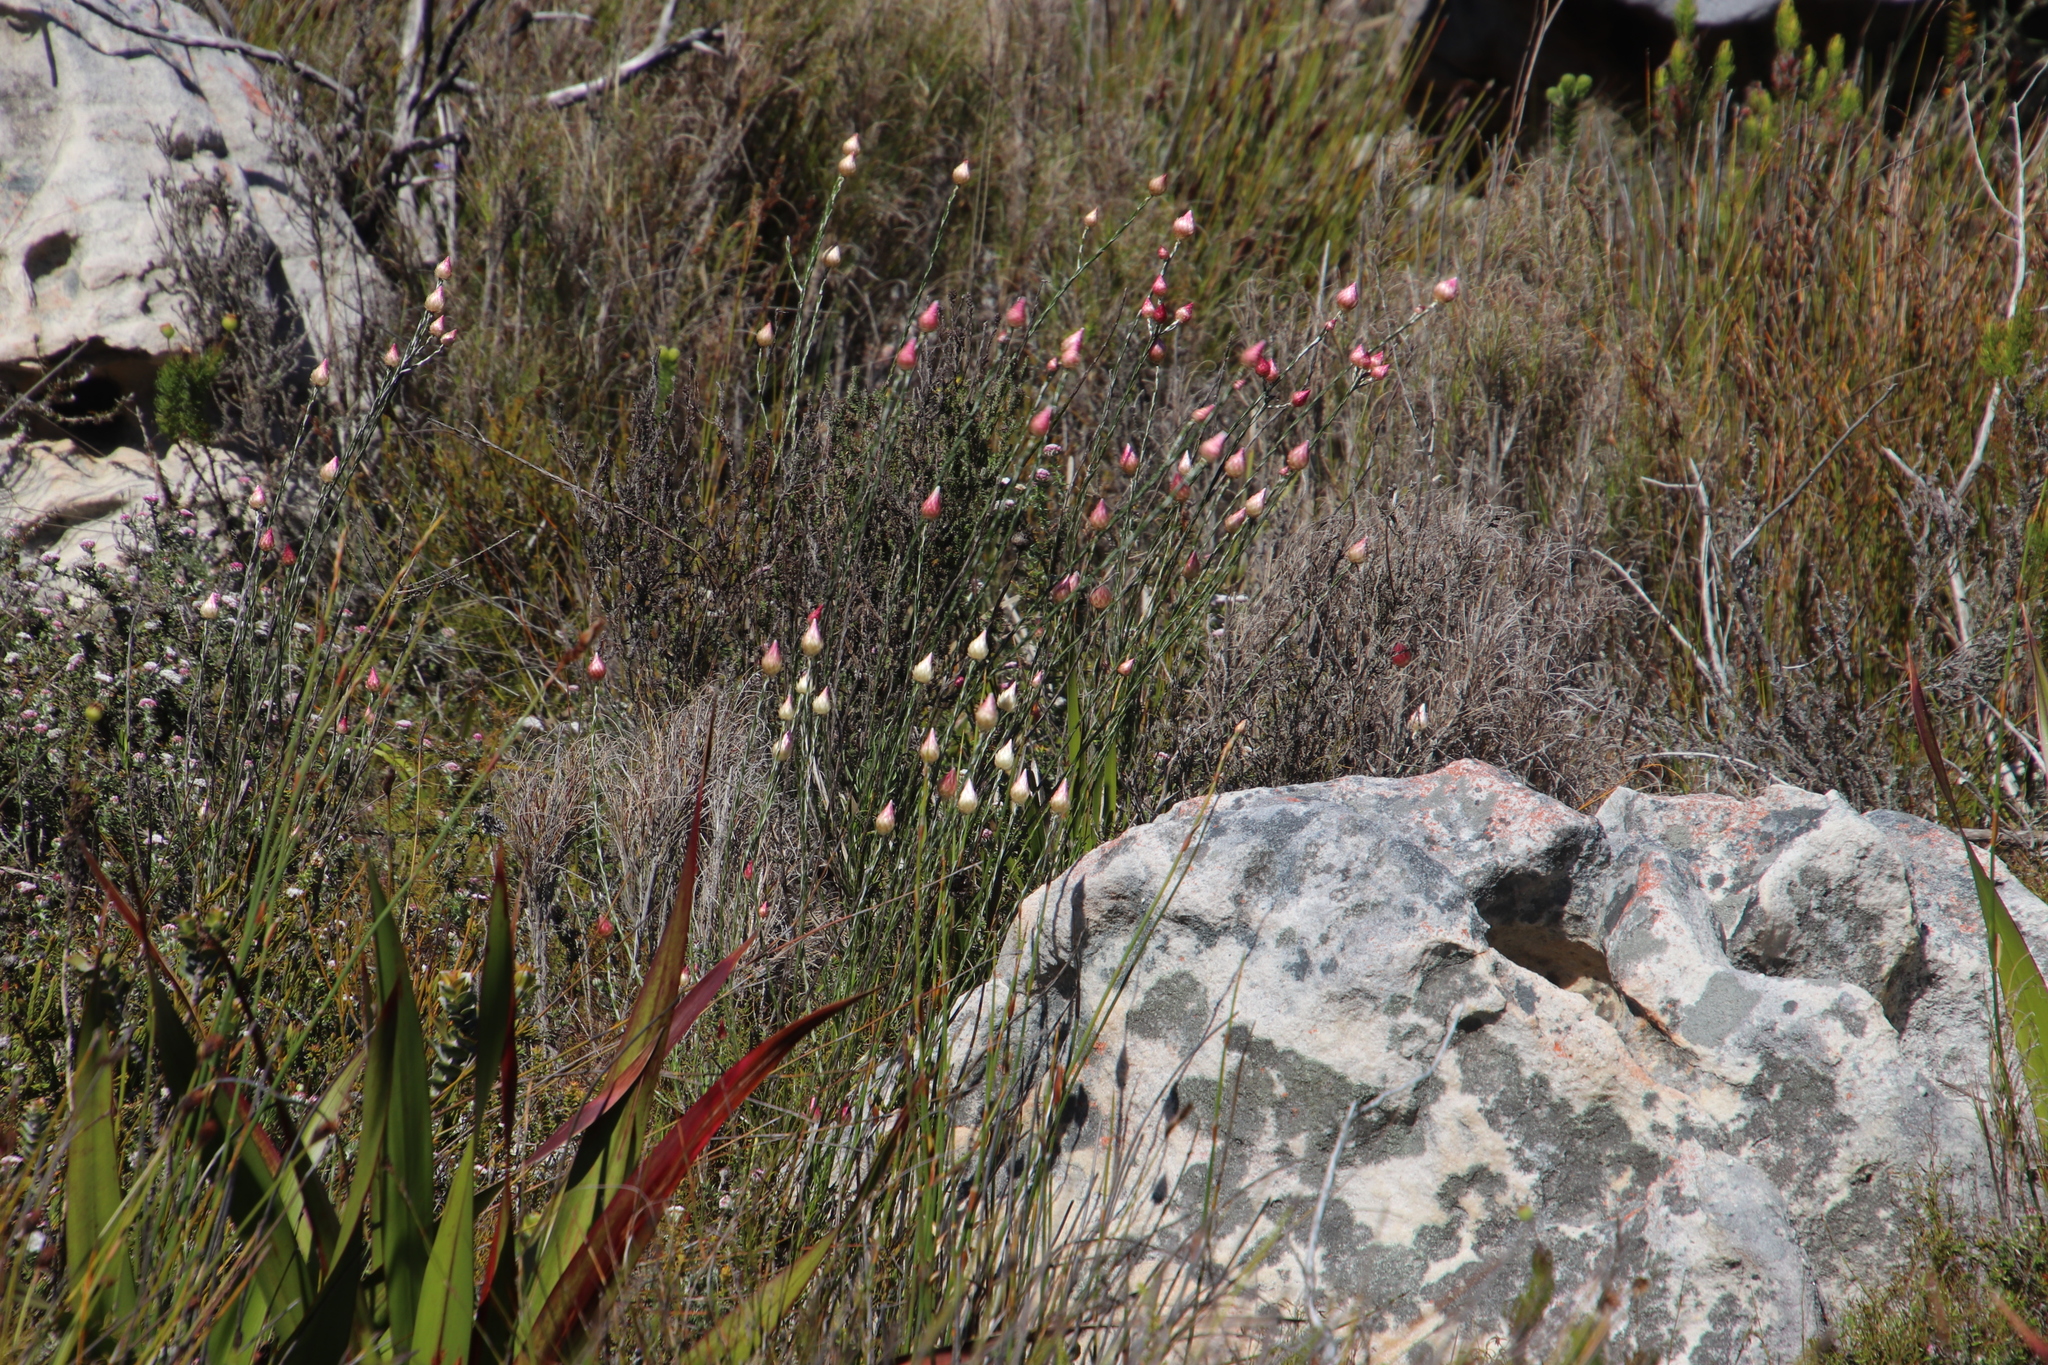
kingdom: Plantae
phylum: Tracheophyta
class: Magnoliopsida
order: Asterales
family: Asteraceae
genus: Edmondia
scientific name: Edmondia sesamoides
